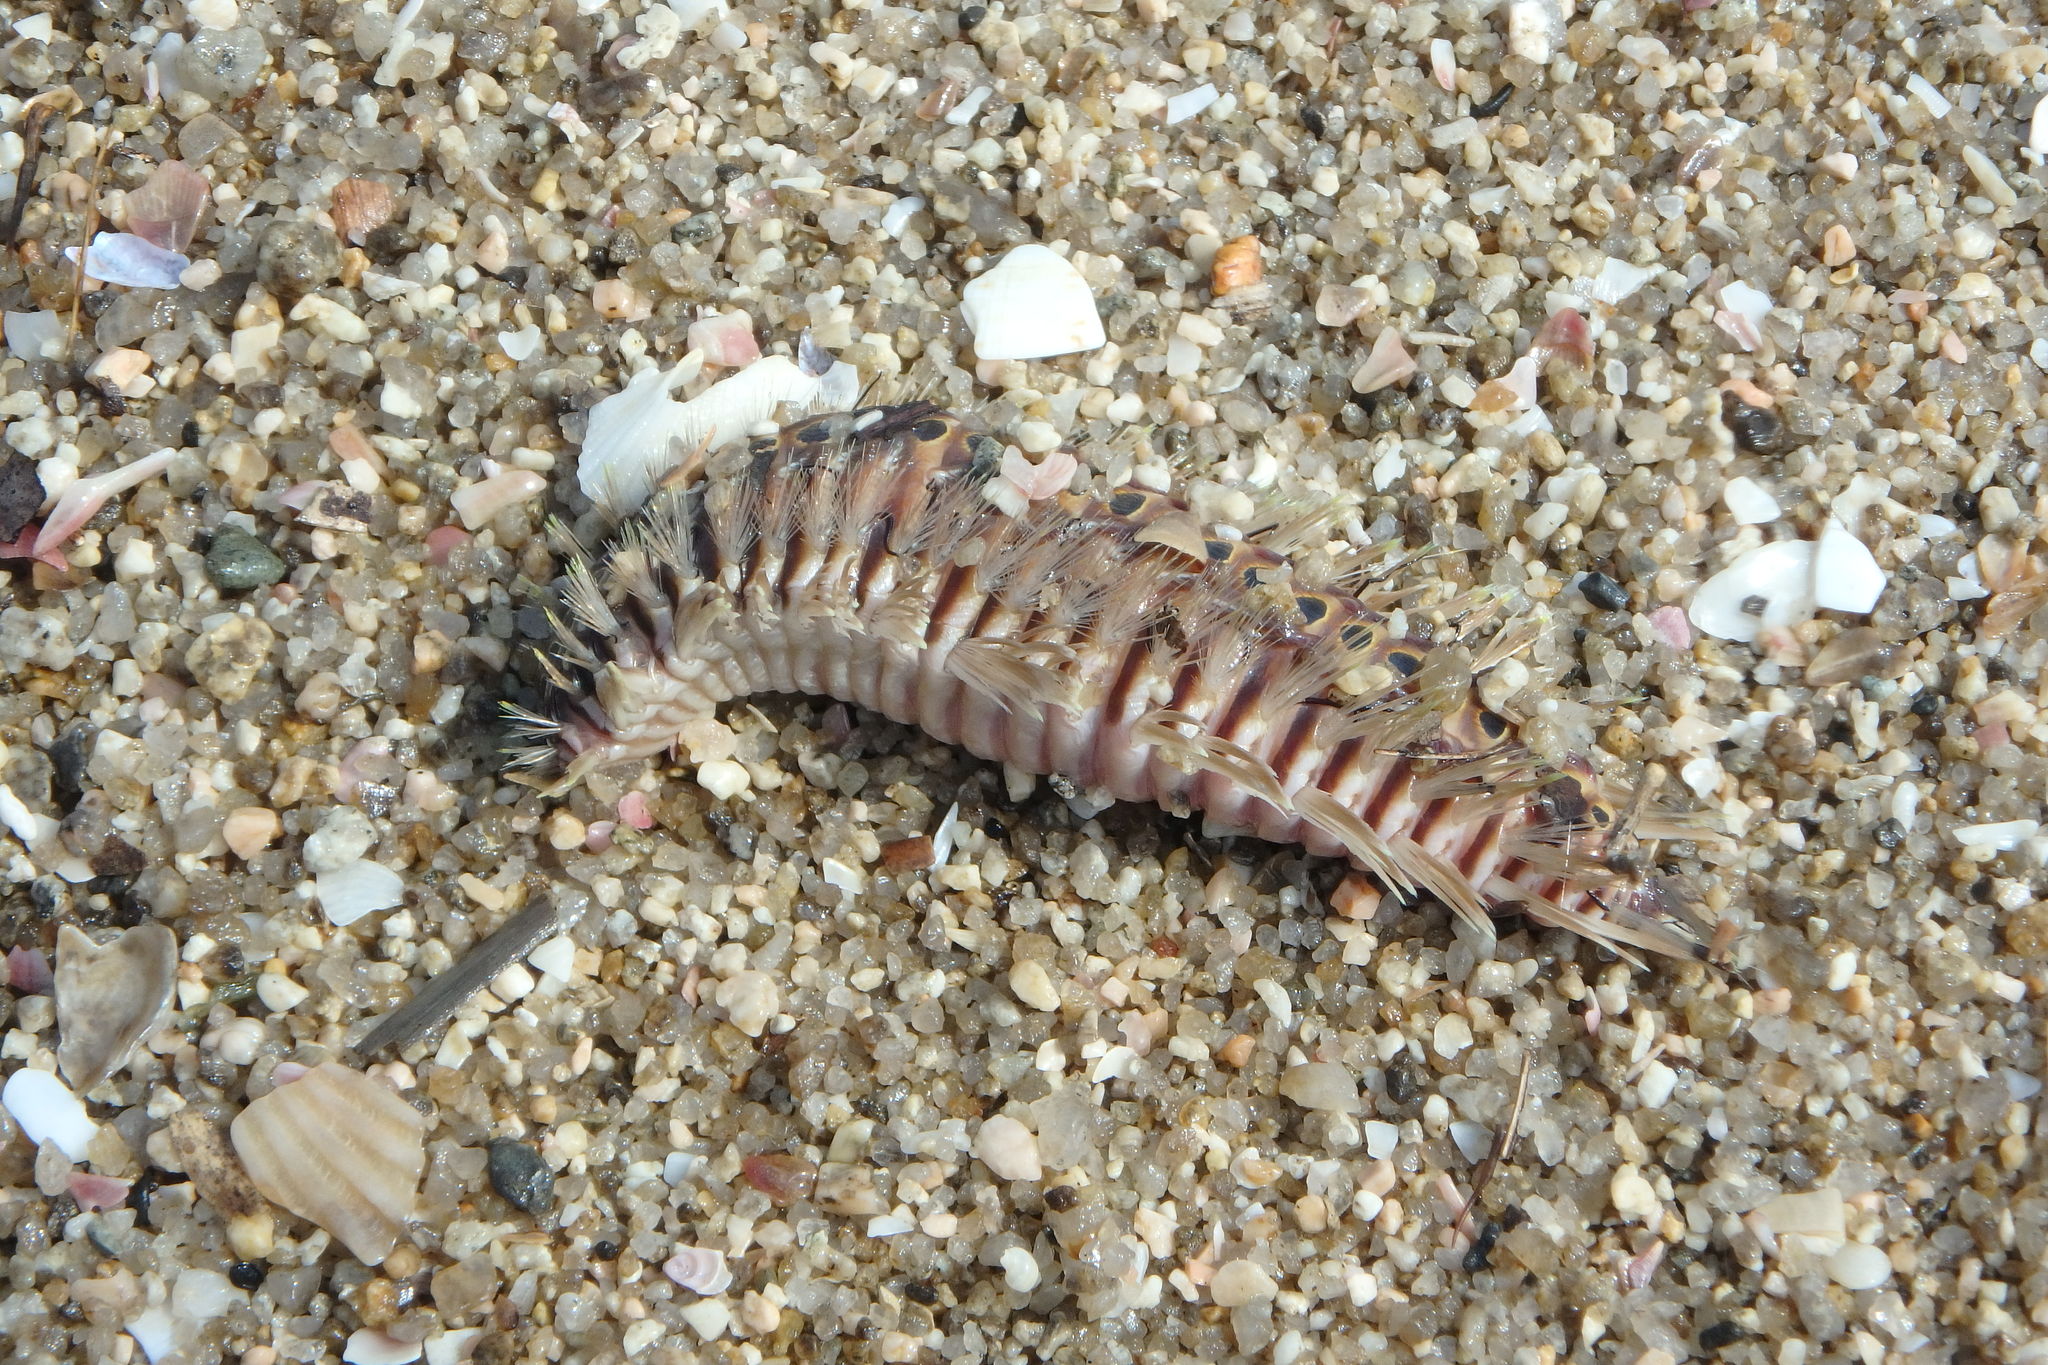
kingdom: Animalia
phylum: Annelida
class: Polychaeta
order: Amphinomida
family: Amphinomidae
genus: Chloeia
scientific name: Chloeia flava
